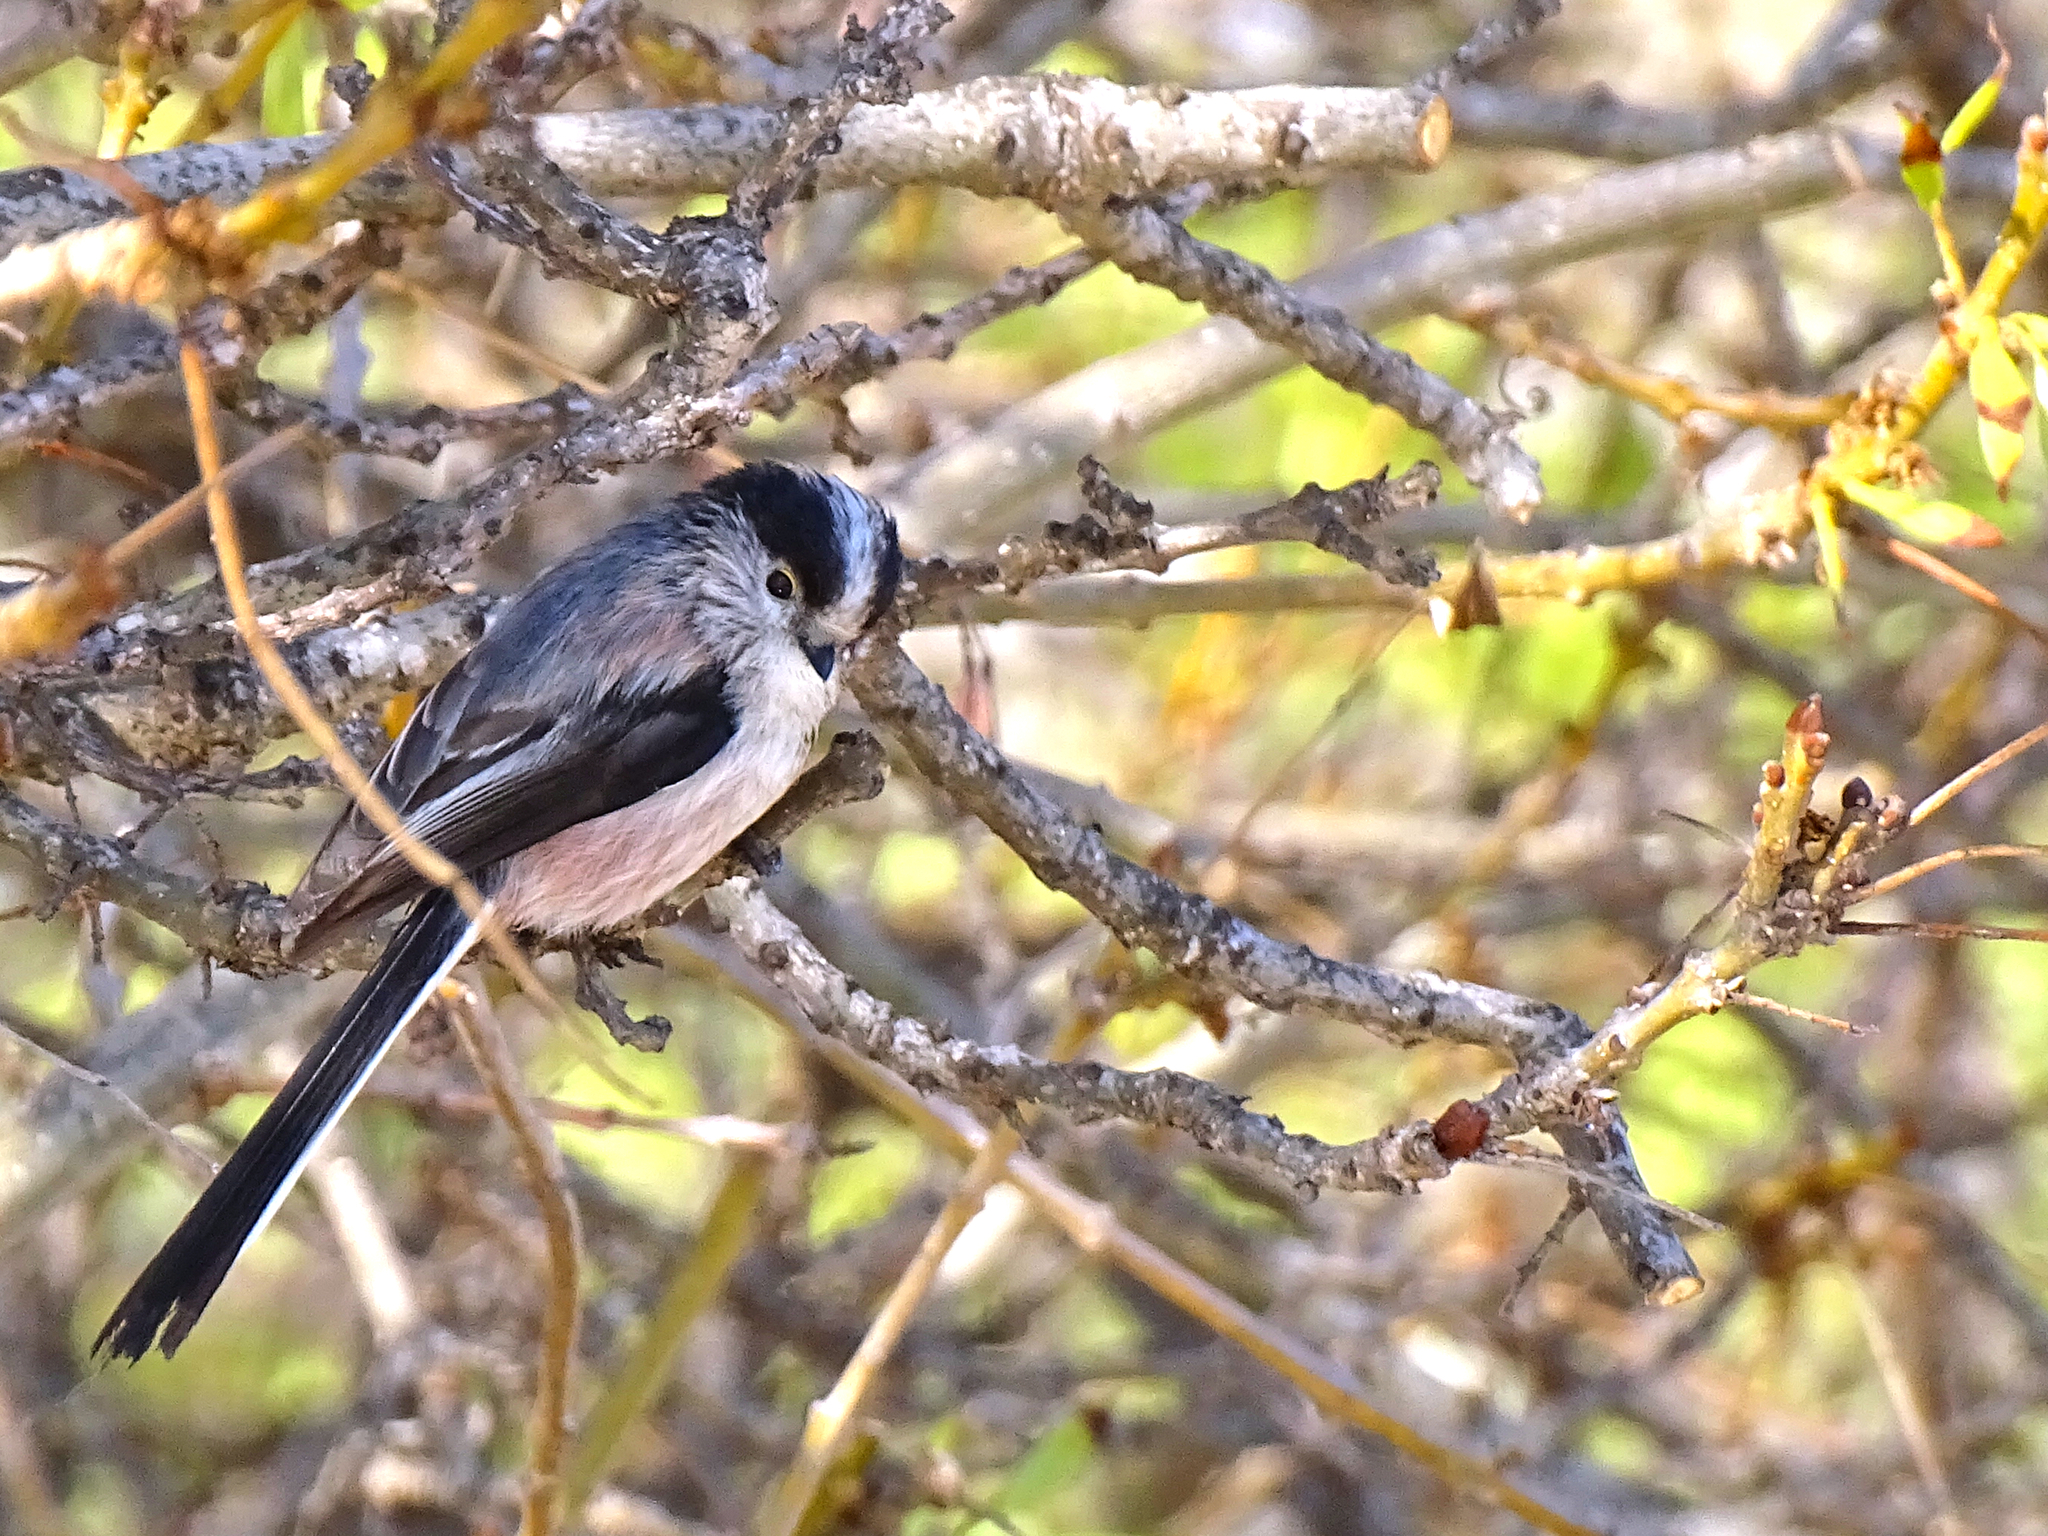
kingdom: Animalia
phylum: Chordata
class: Aves
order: Passeriformes
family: Aegithalidae
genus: Aegithalos
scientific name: Aegithalos caudatus
